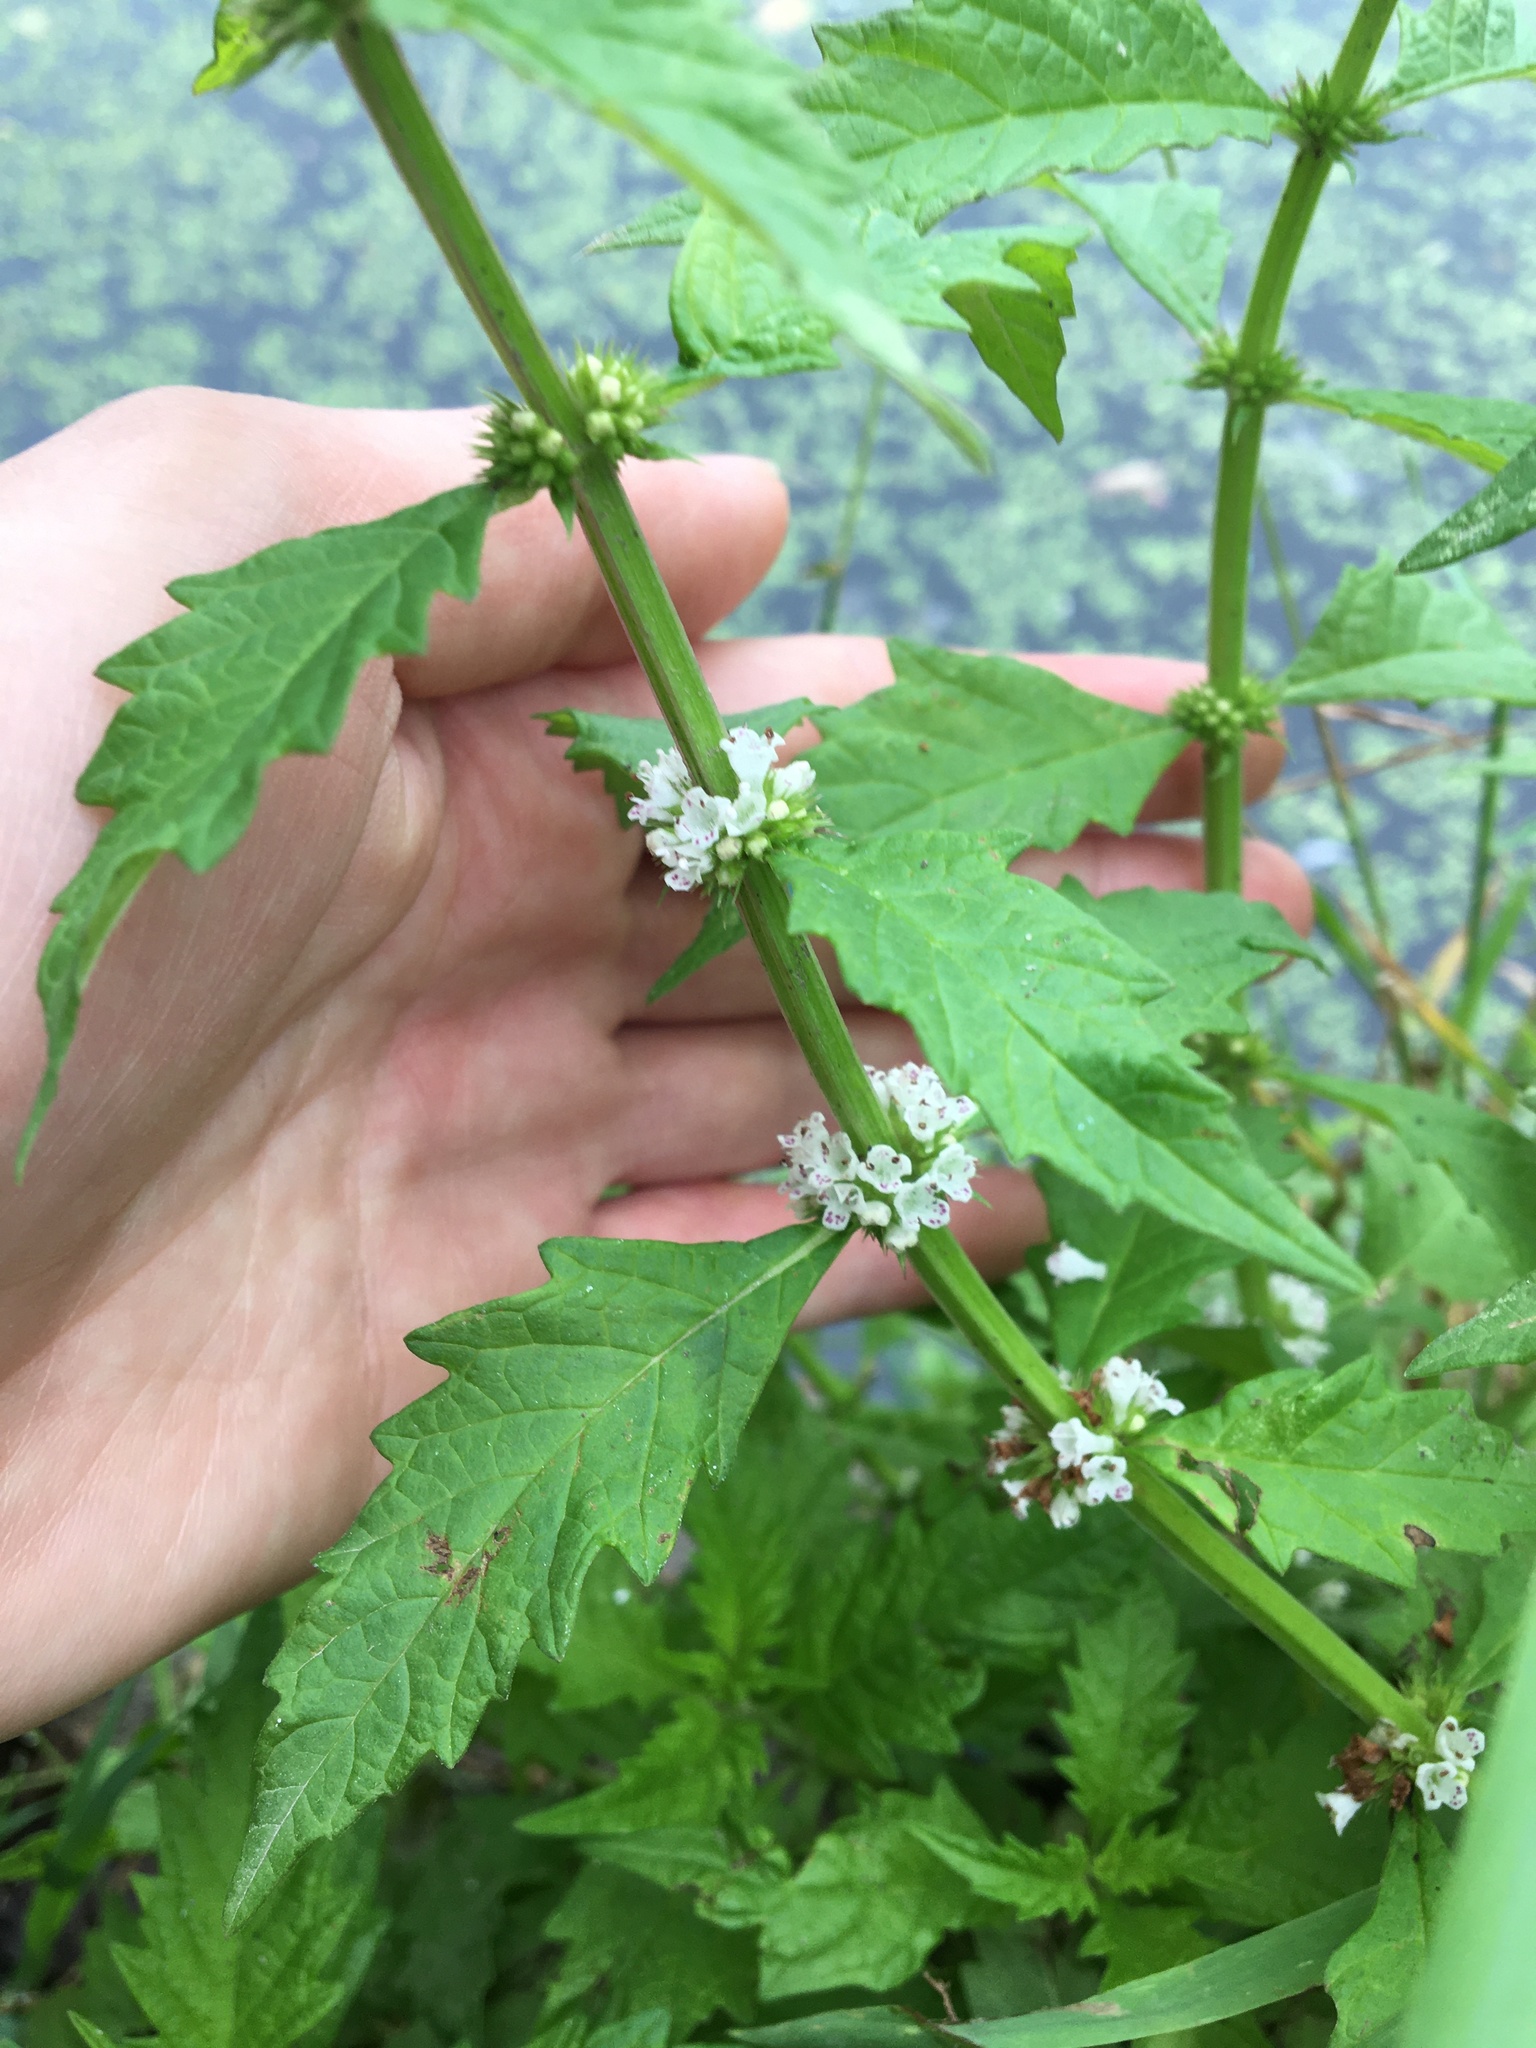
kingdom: Plantae
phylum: Tracheophyta
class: Magnoliopsida
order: Lamiales
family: Lamiaceae
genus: Lycopus
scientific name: Lycopus europaeus
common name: European bugleweed
